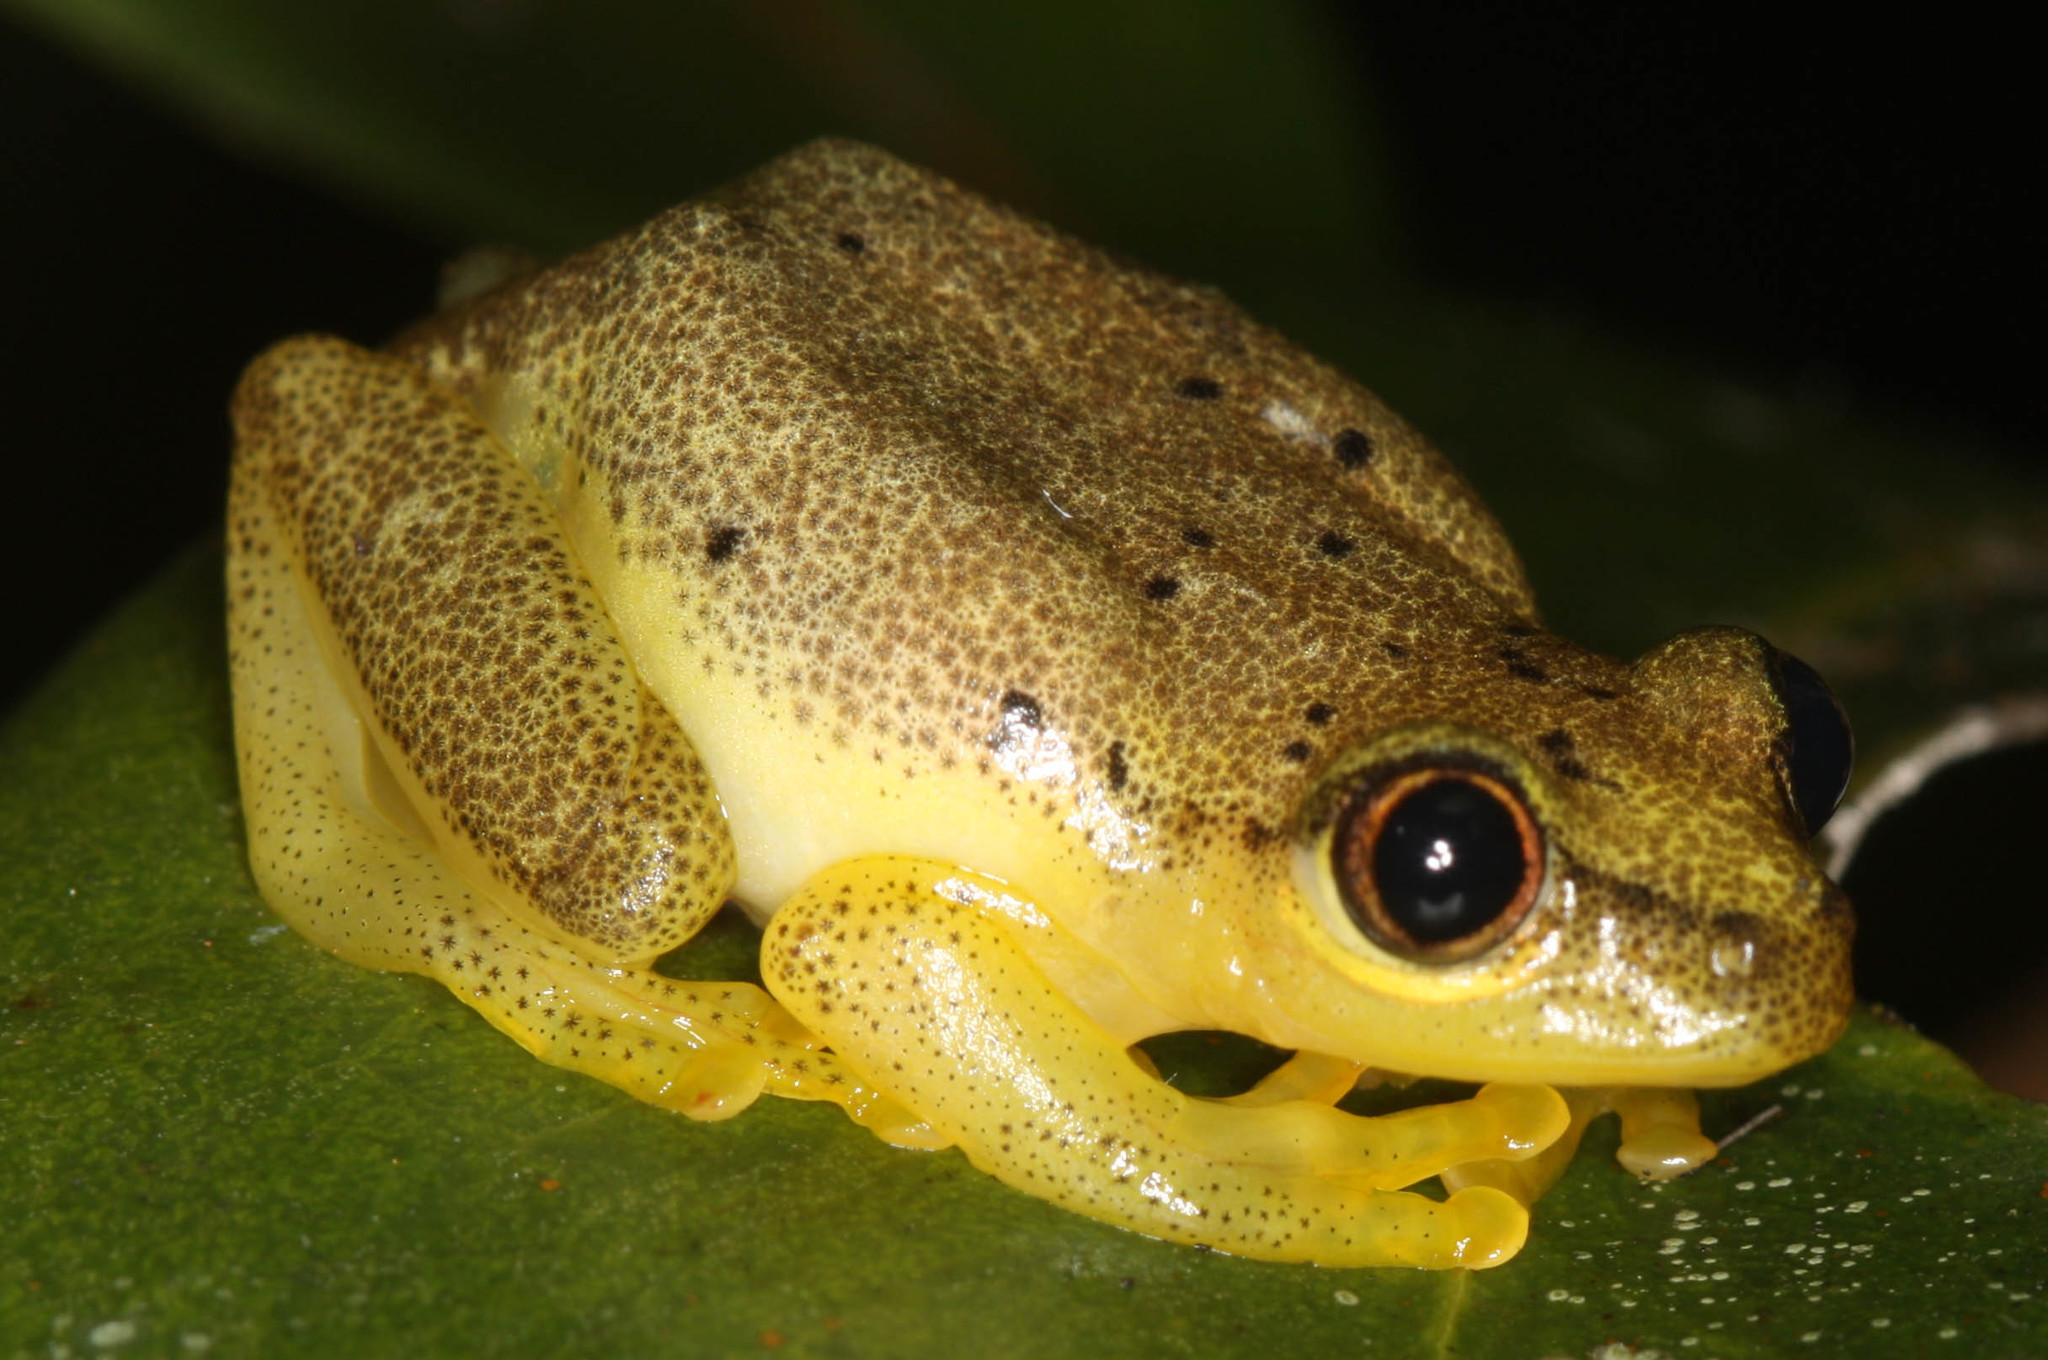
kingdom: Animalia
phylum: Chordata
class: Amphibia
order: Anura
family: Hyperoliidae
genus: Heterixalus
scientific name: Heterixalus punctatus
